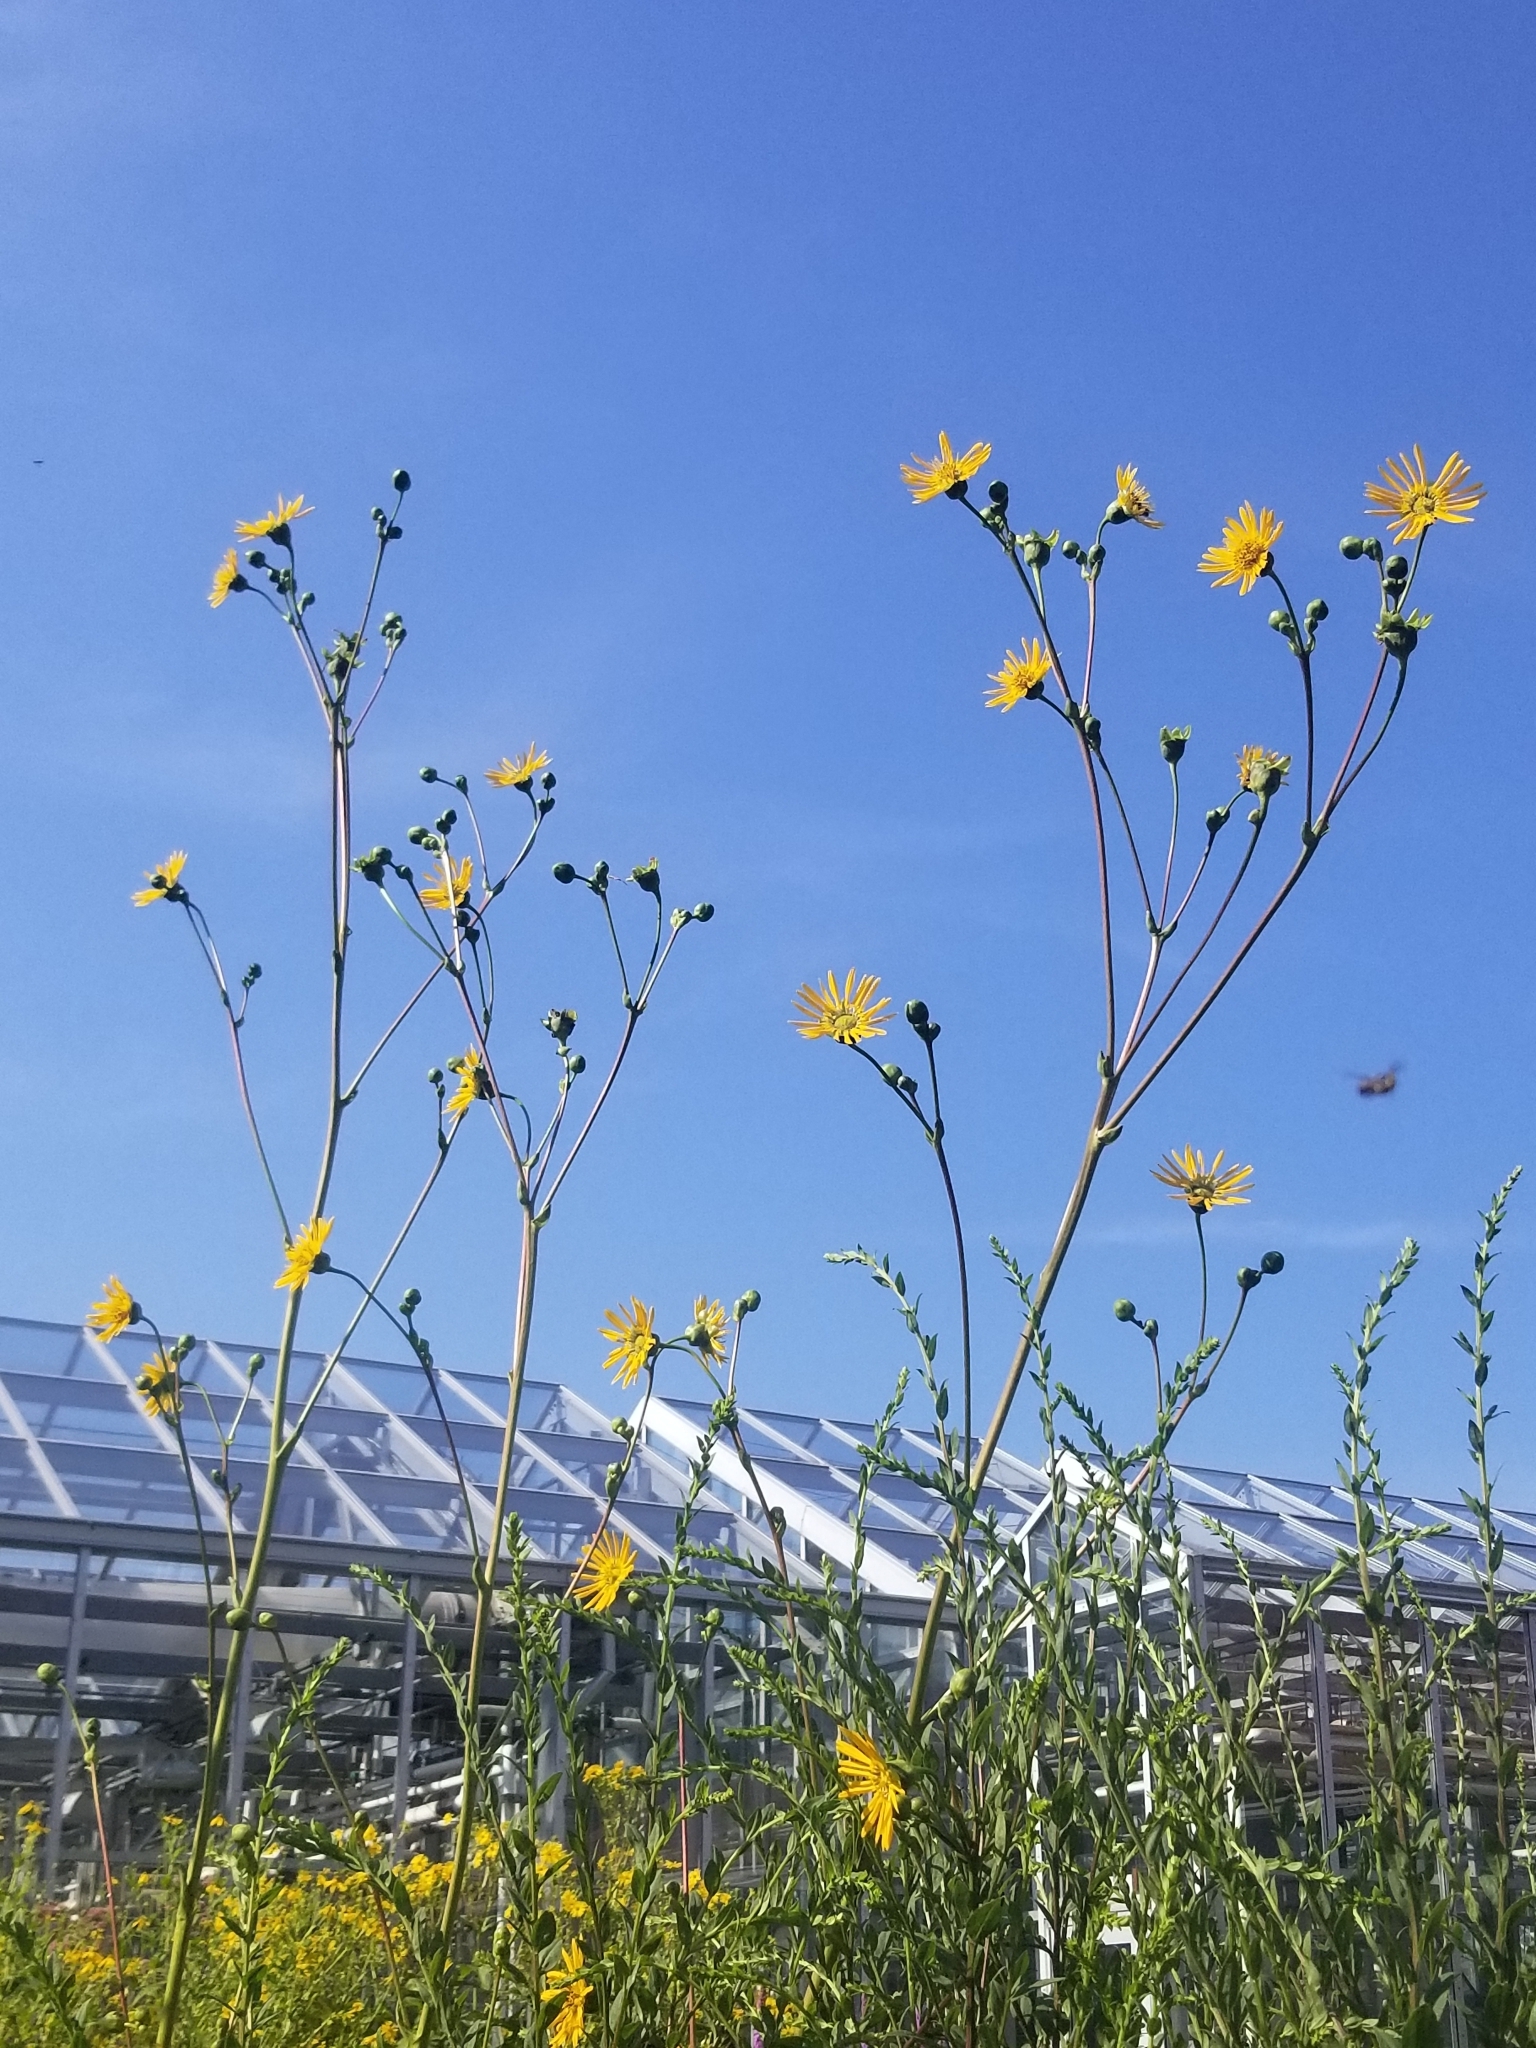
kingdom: Plantae
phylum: Tracheophyta
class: Magnoliopsida
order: Asterales
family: Asteraceae
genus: Silphium
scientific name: Silphium terebinthinaceum
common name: Basal-leaf rosinweed
